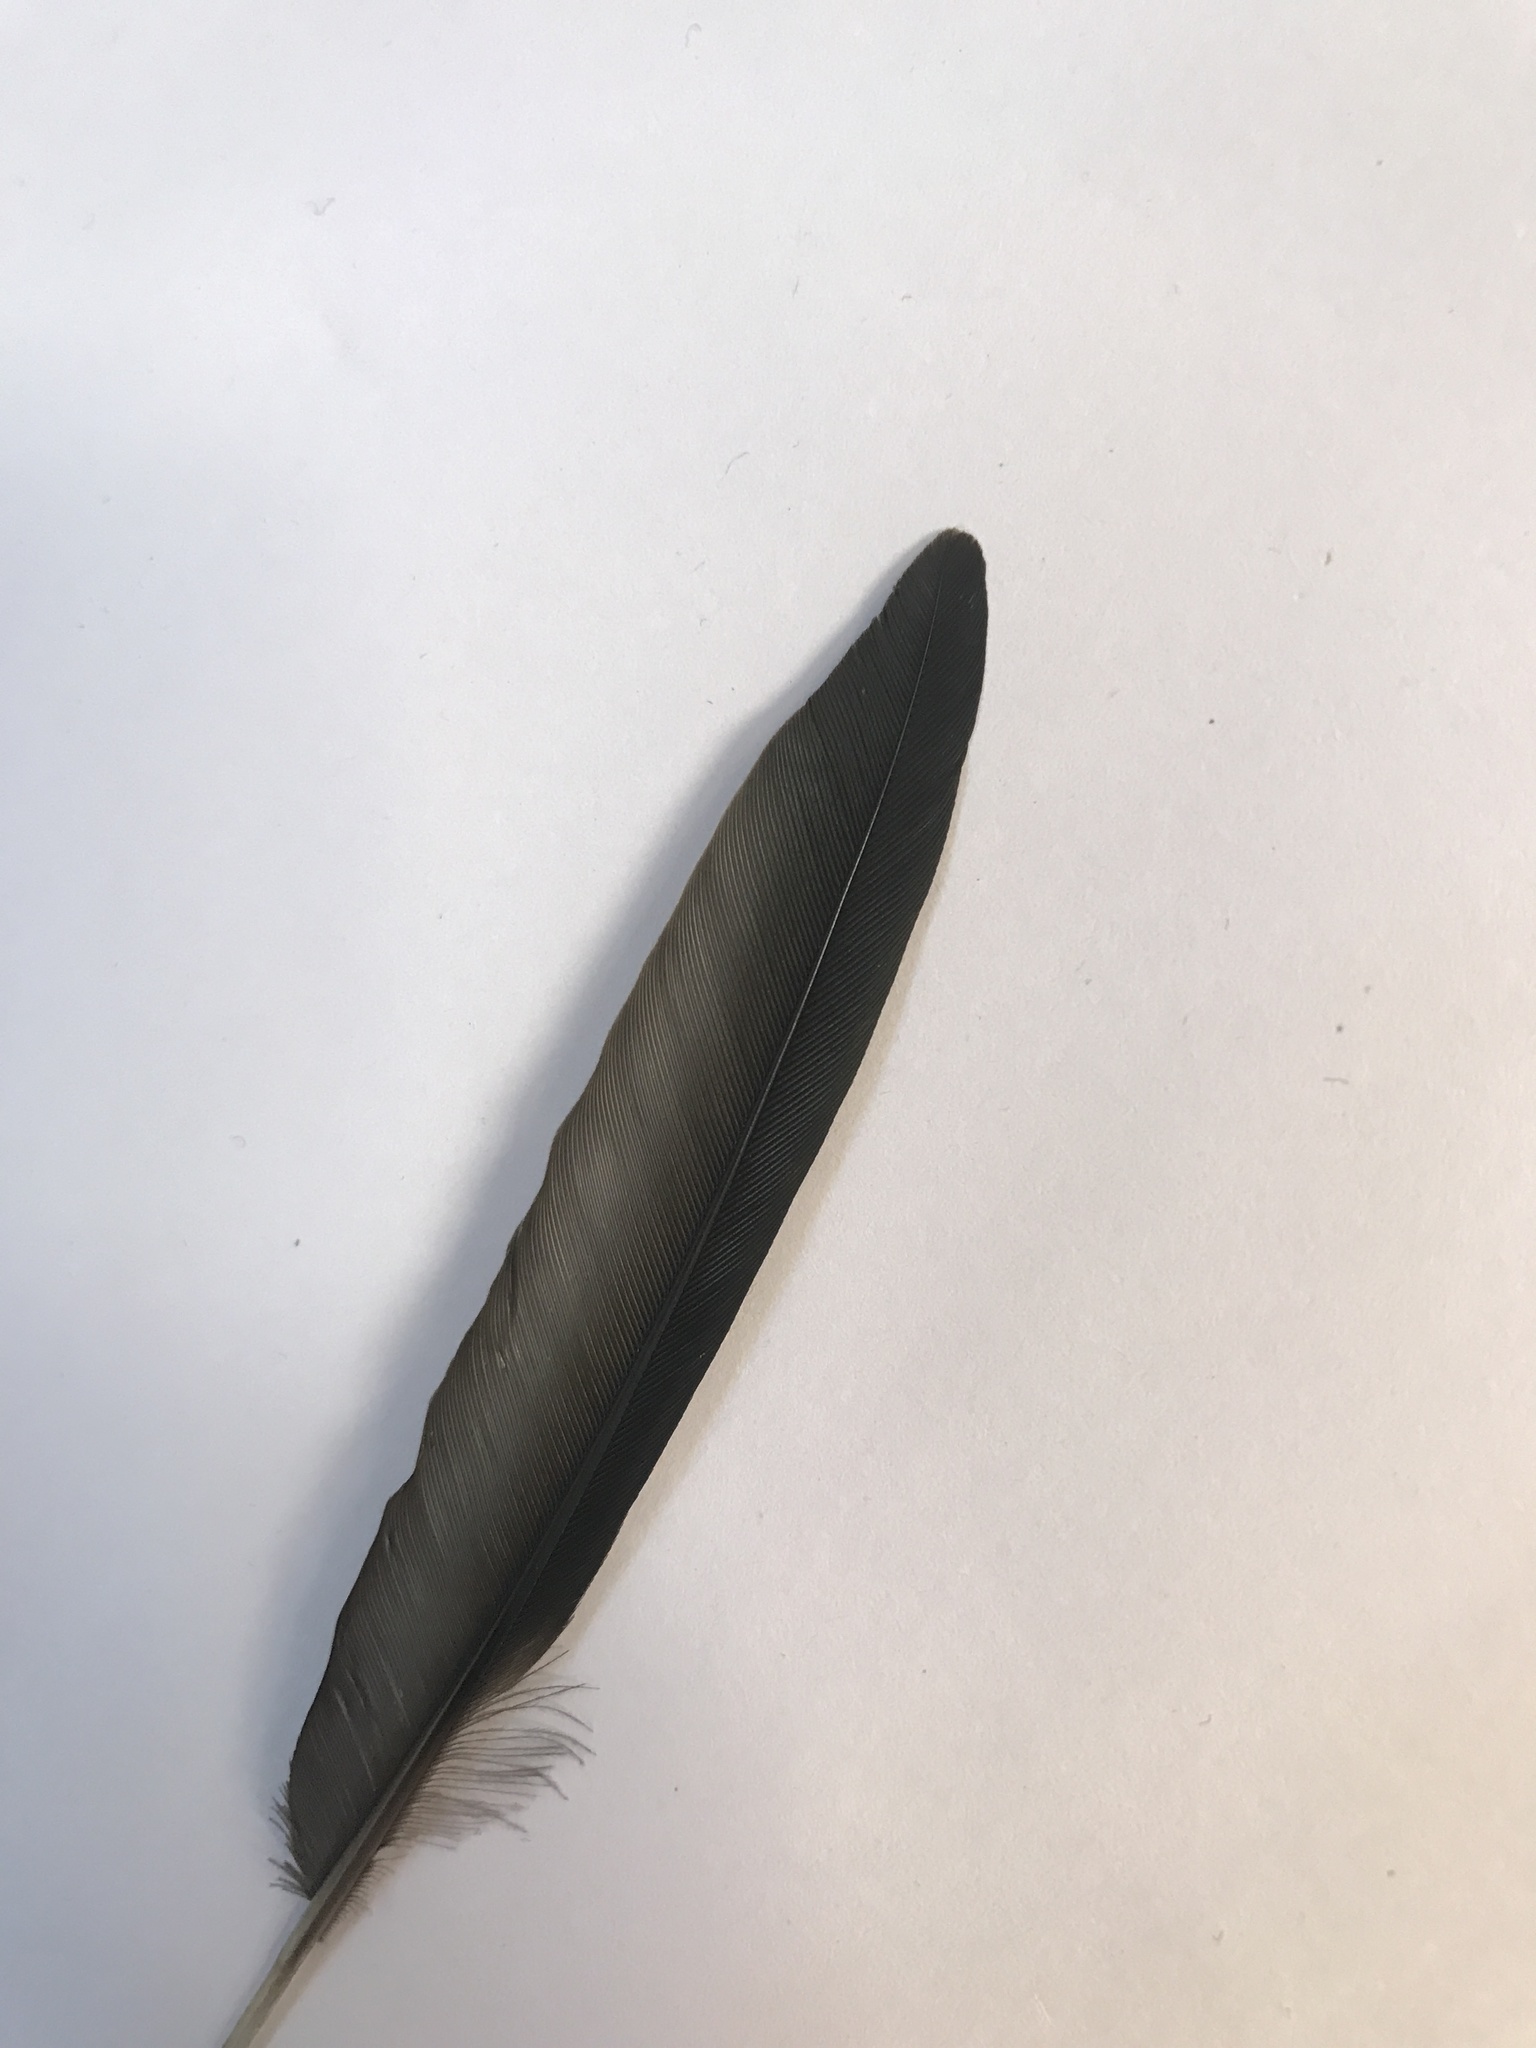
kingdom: Animalia
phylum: Chordata
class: Aves
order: Apodiformes
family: Apodidae
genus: Chaetura
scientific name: Chaetura pelagica
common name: Chimney swift
